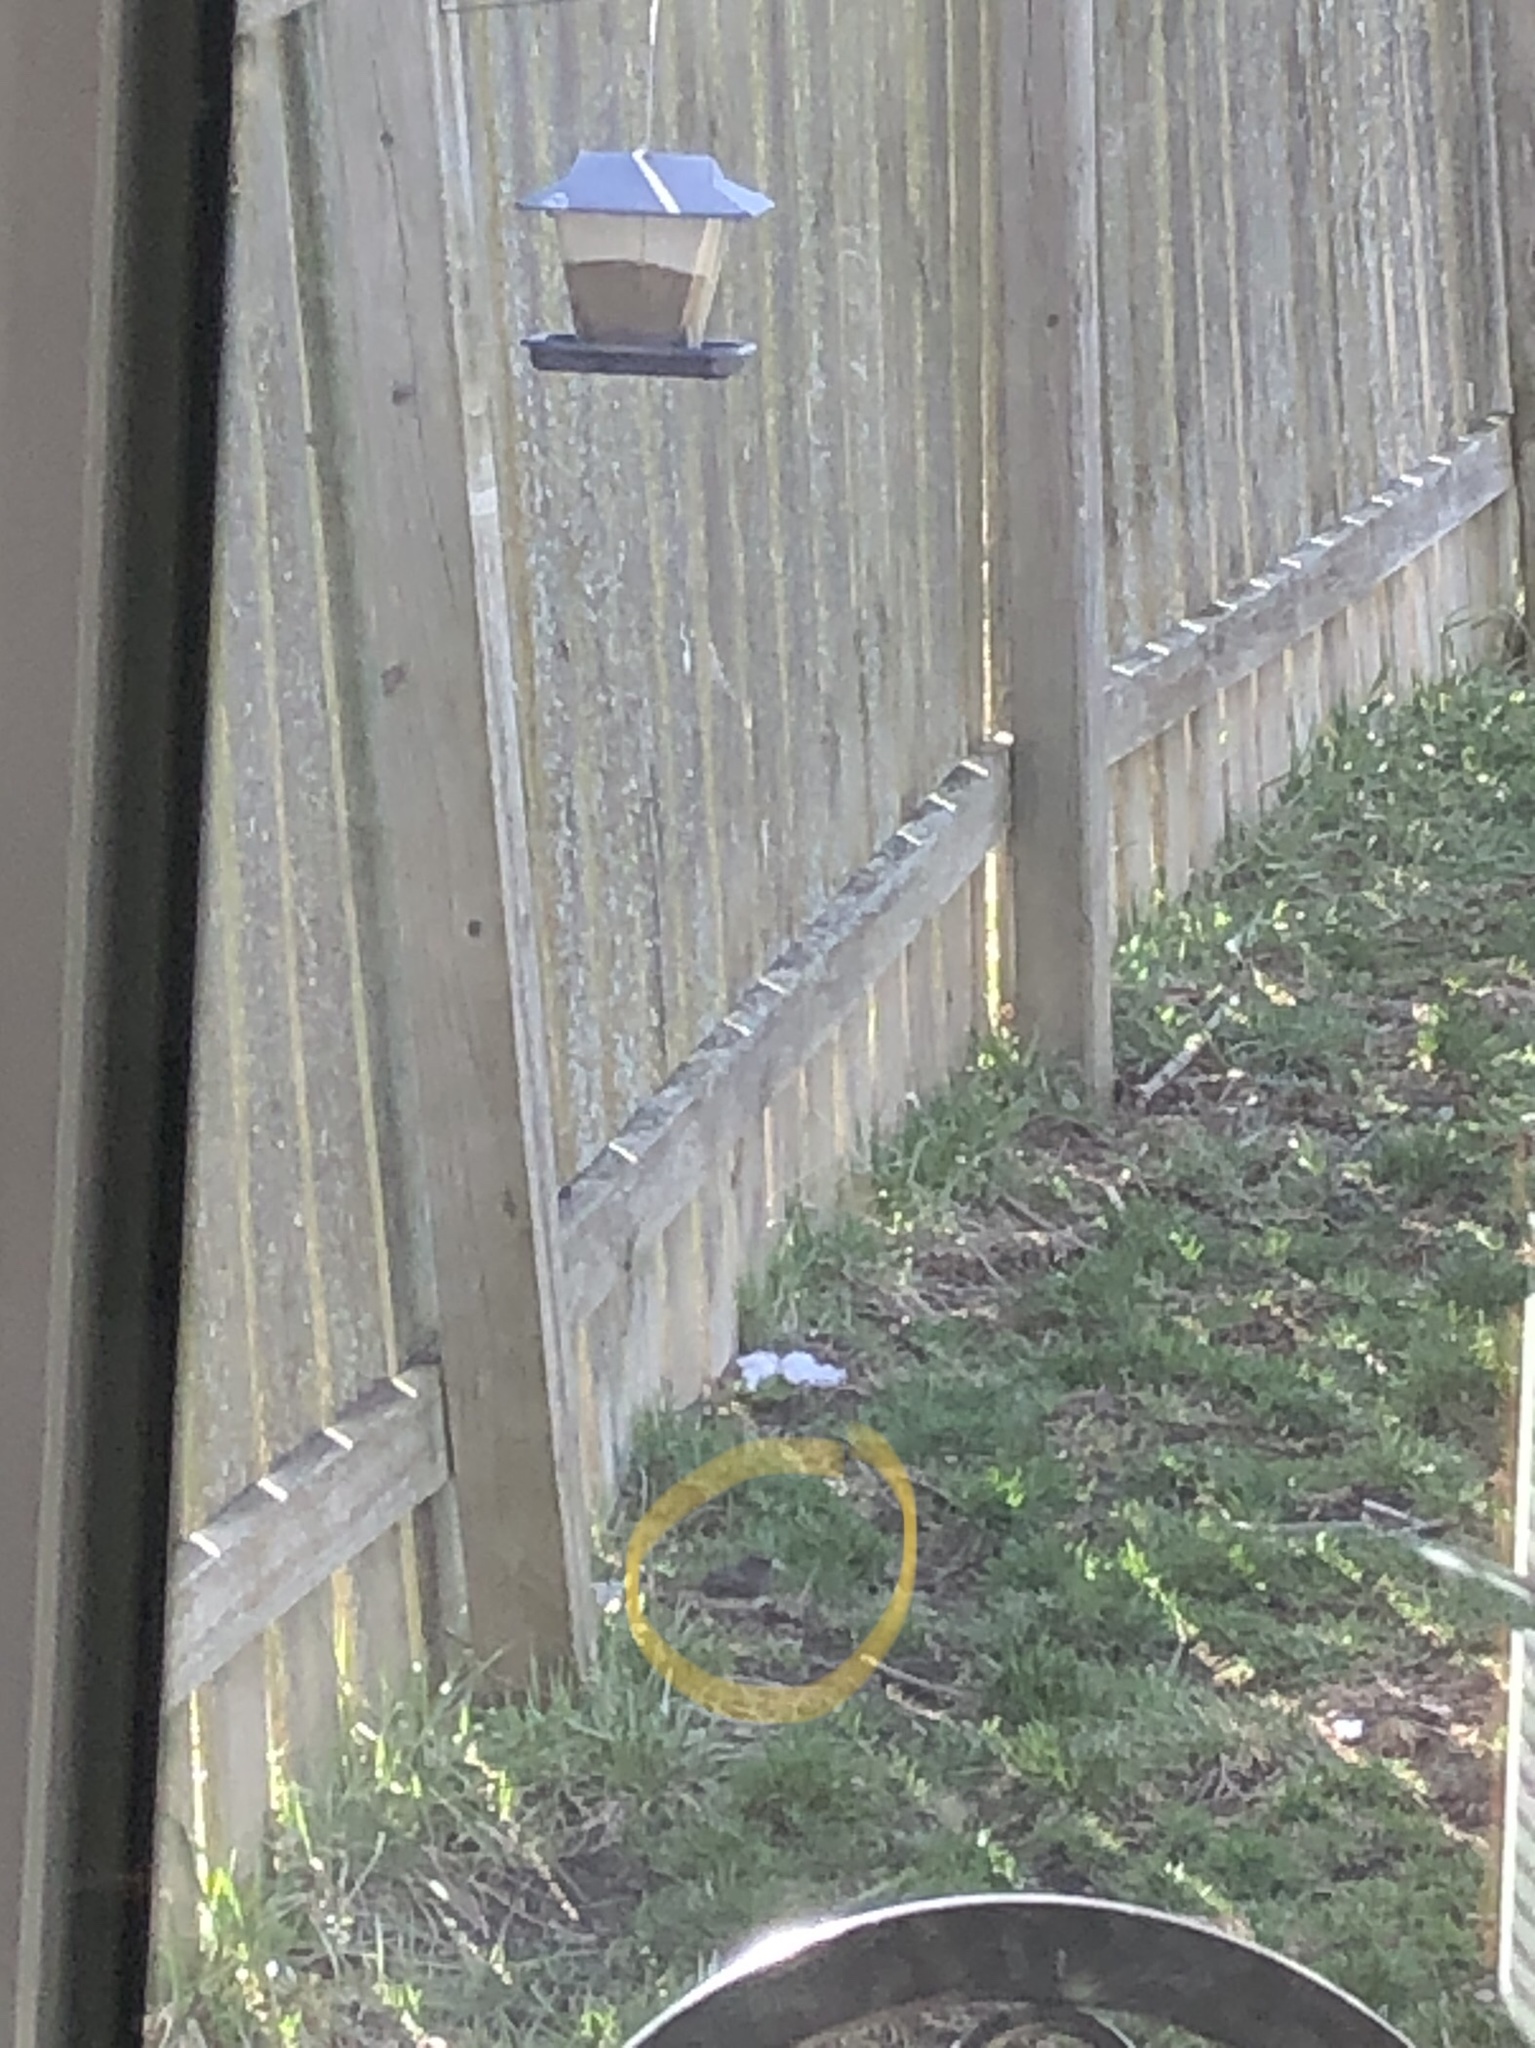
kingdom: Animalia
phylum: Chordata
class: Aves
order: Passeriformes
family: Passerellidae
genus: Junco
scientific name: Junco hyemalis
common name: Dark-eyed junco
